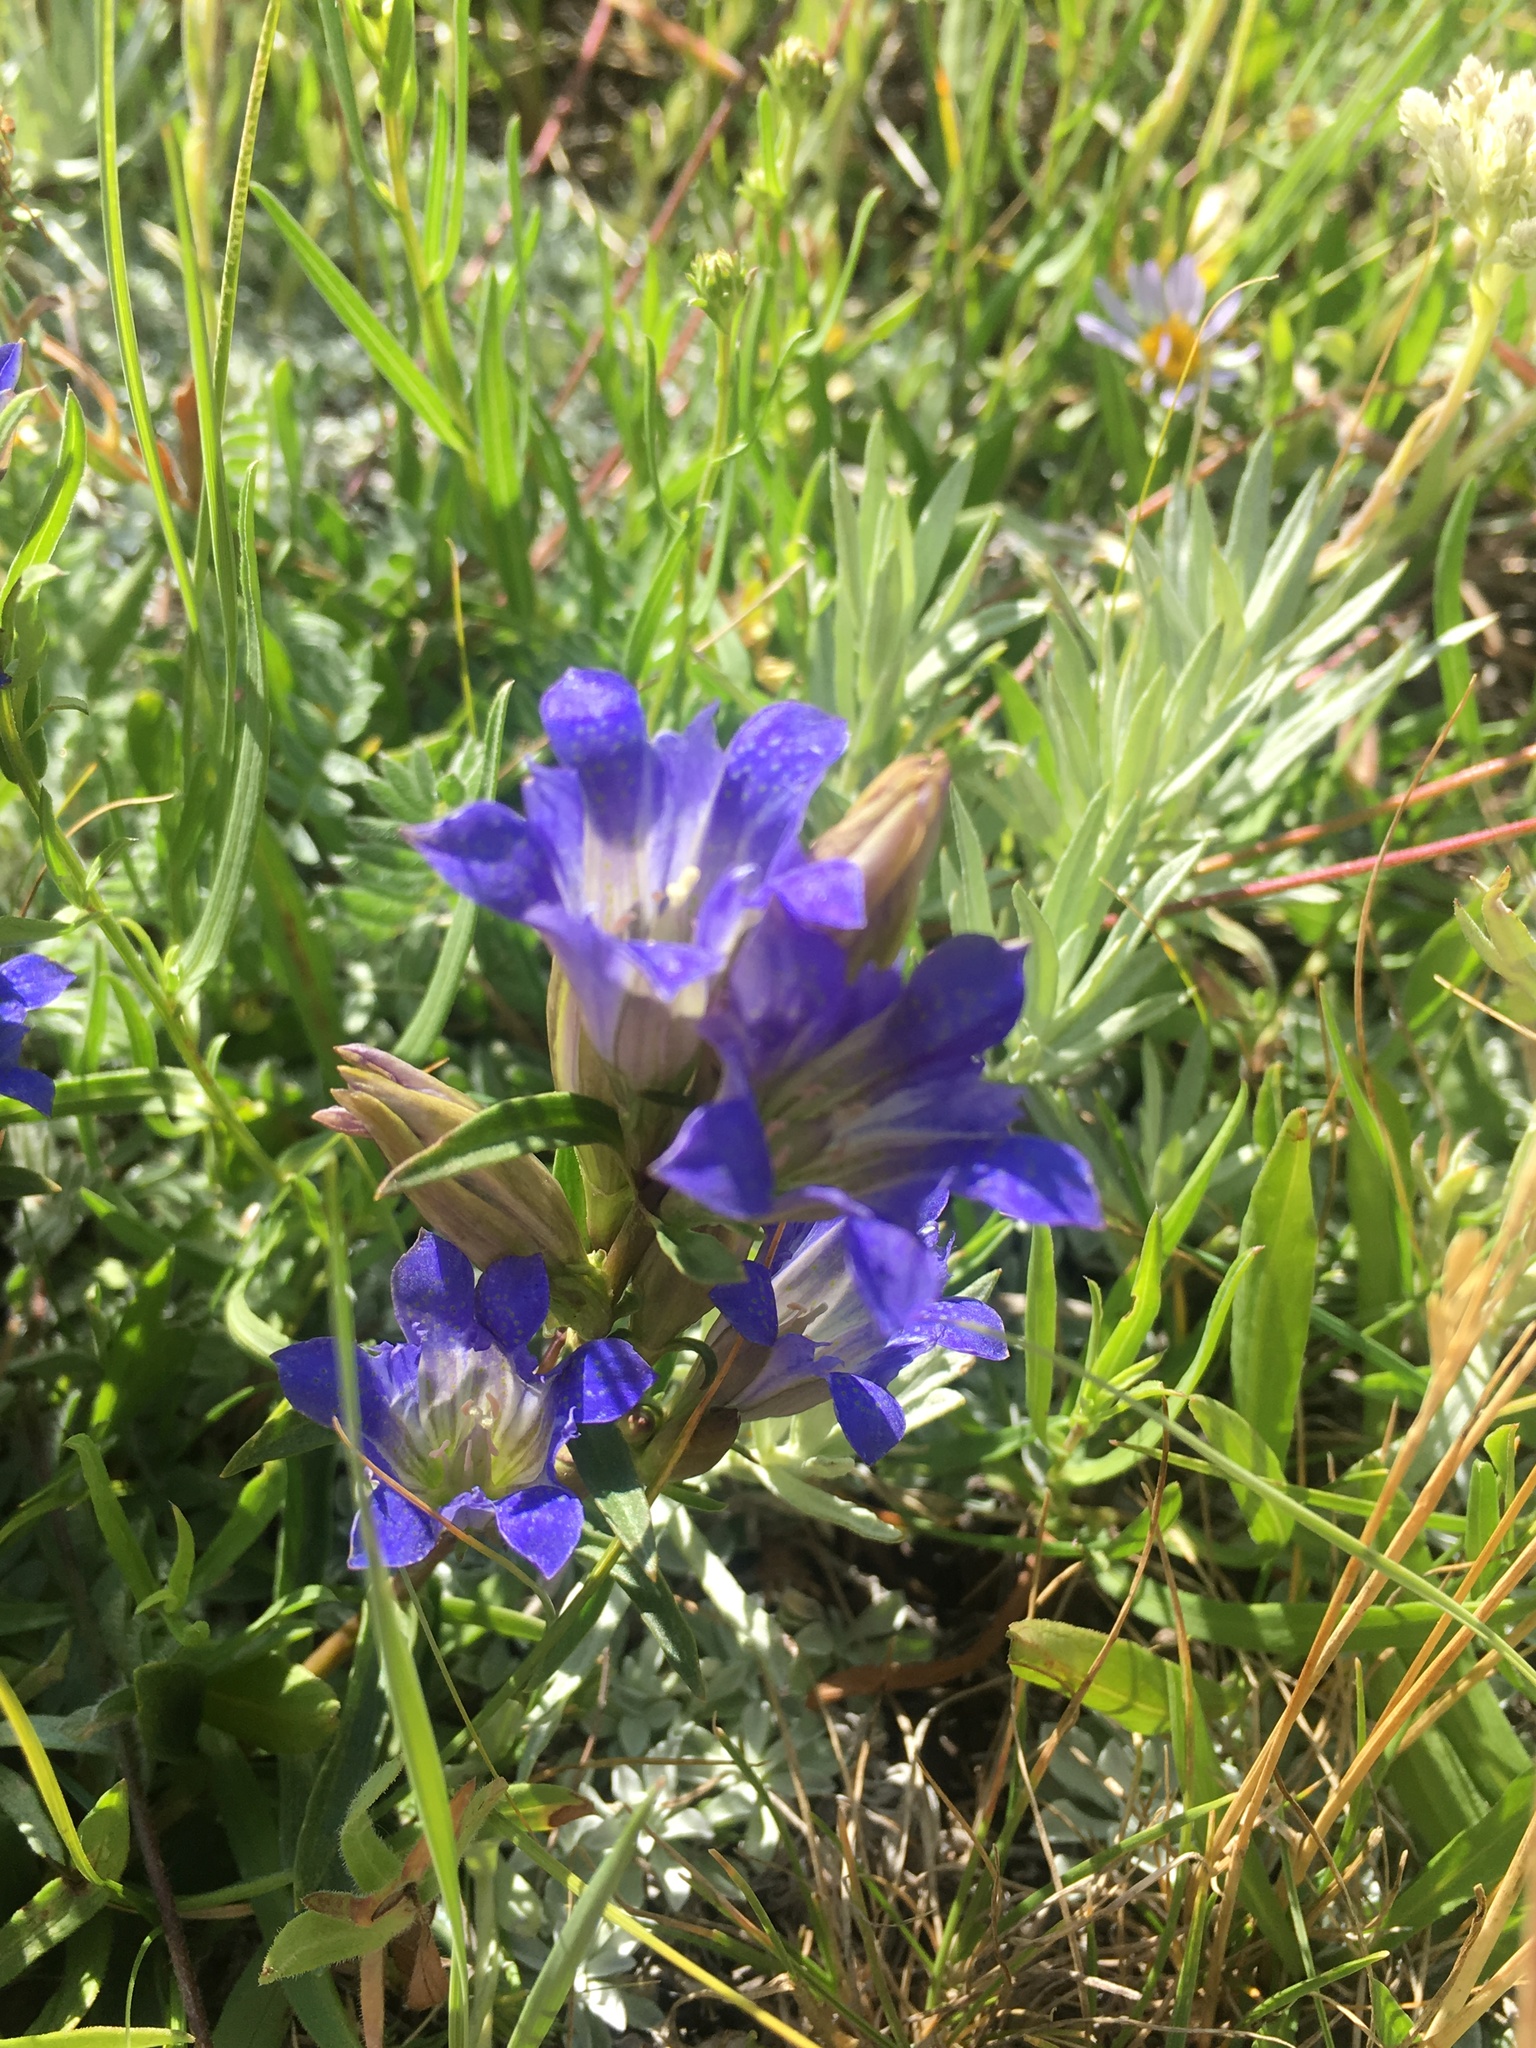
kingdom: Plantae
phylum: Tracheophyta
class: Magnoliopsida
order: Gentianales
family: Gentianaceae
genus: Gentiana
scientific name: Gentiana affinis
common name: Rocky mountain gentian
